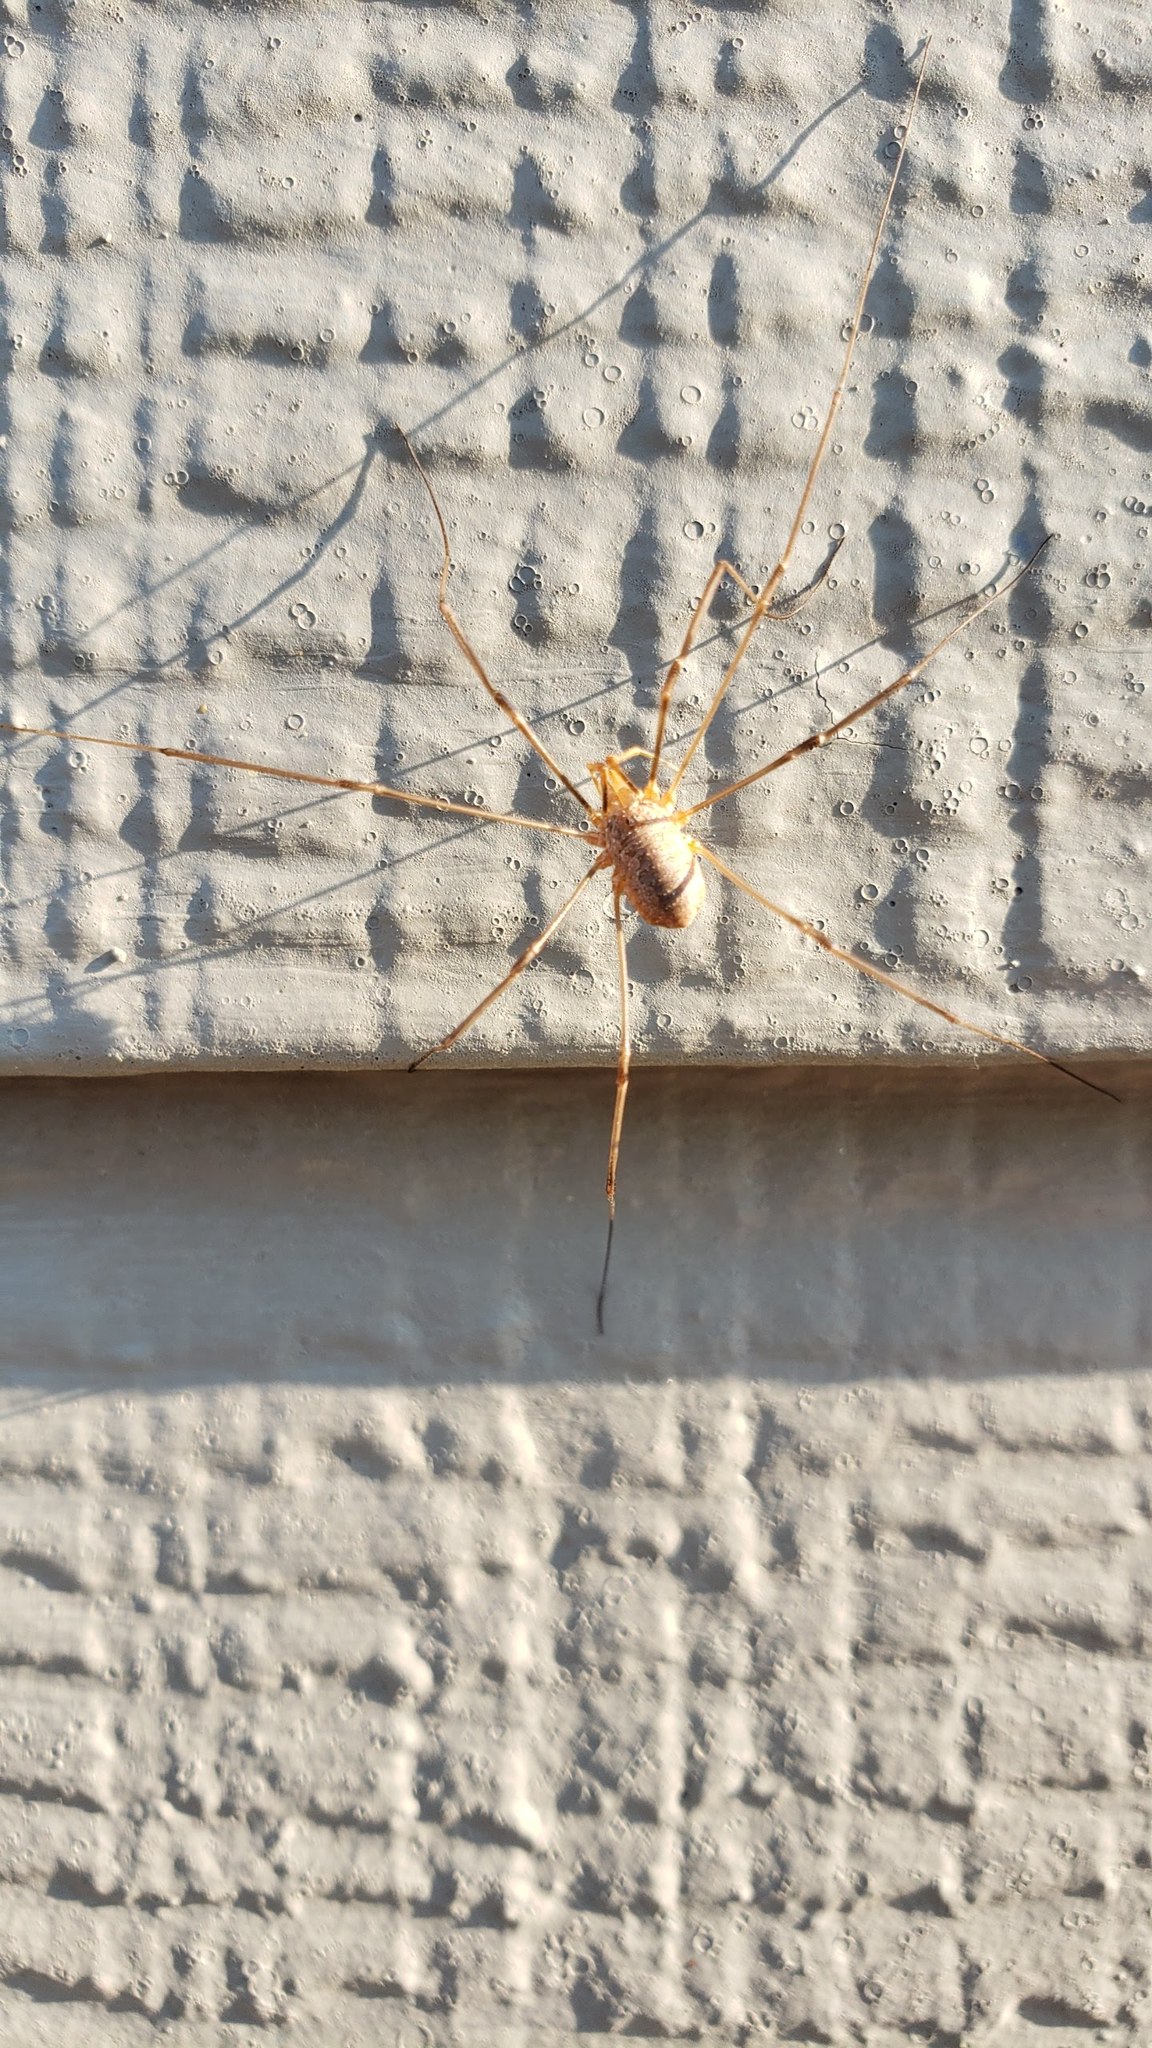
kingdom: Animalia
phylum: Arthropoda
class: Arachnida
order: Opiliones
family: Phalangiidae
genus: Phalangium
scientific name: Phalangium opilio
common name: Daddy longleg
